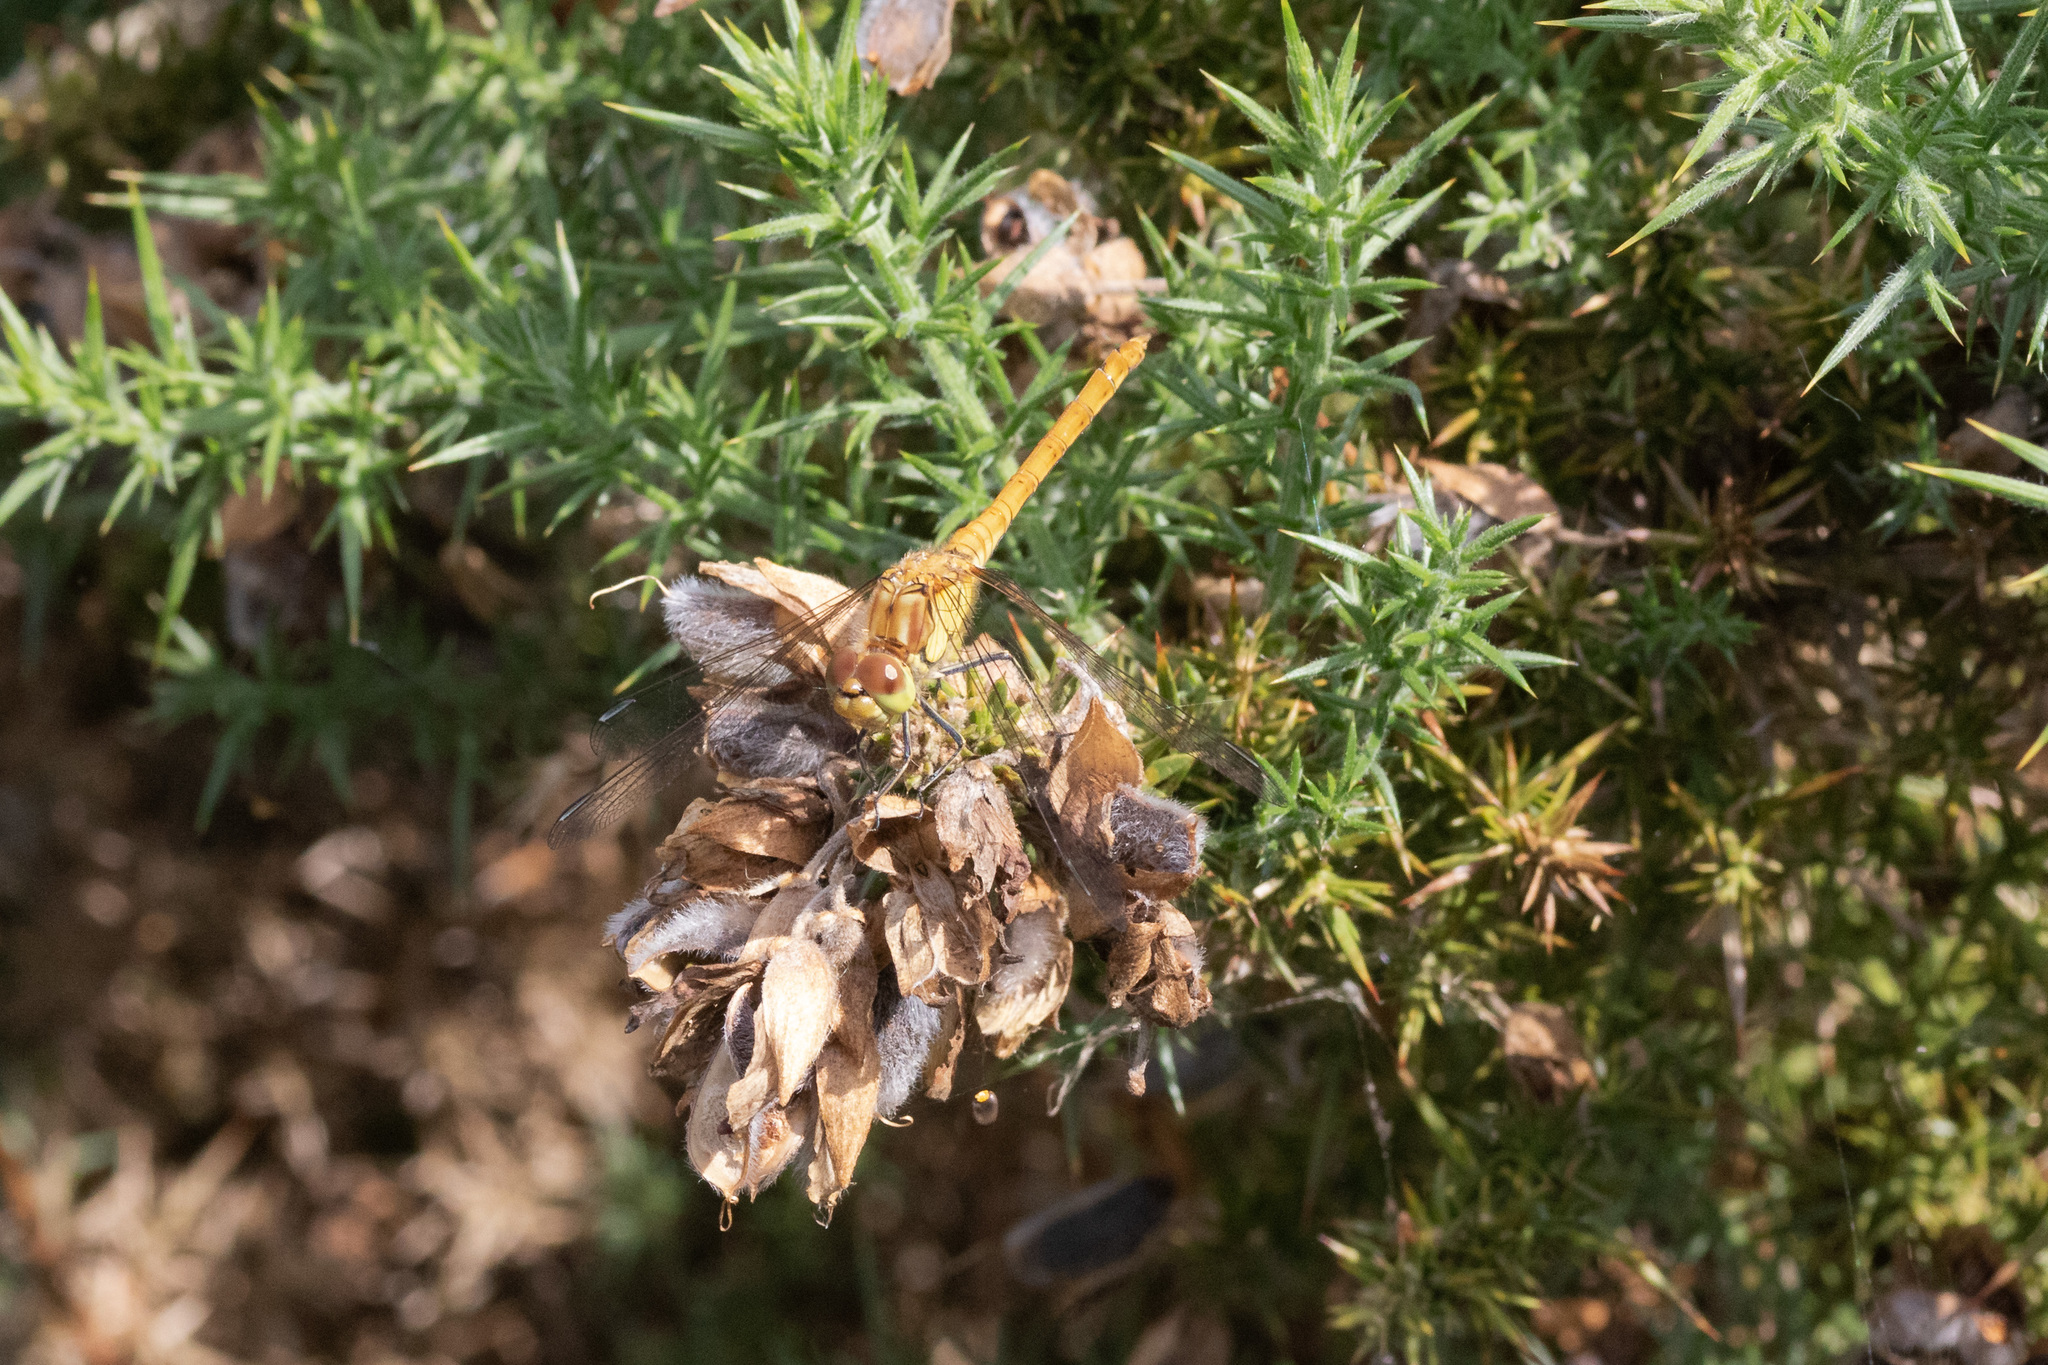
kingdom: Animalia
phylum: Arthropoda
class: Insecta
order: Odonata
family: Libellulidae
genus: Sympetrum
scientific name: Sympetrum striolatum
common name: Common darter
